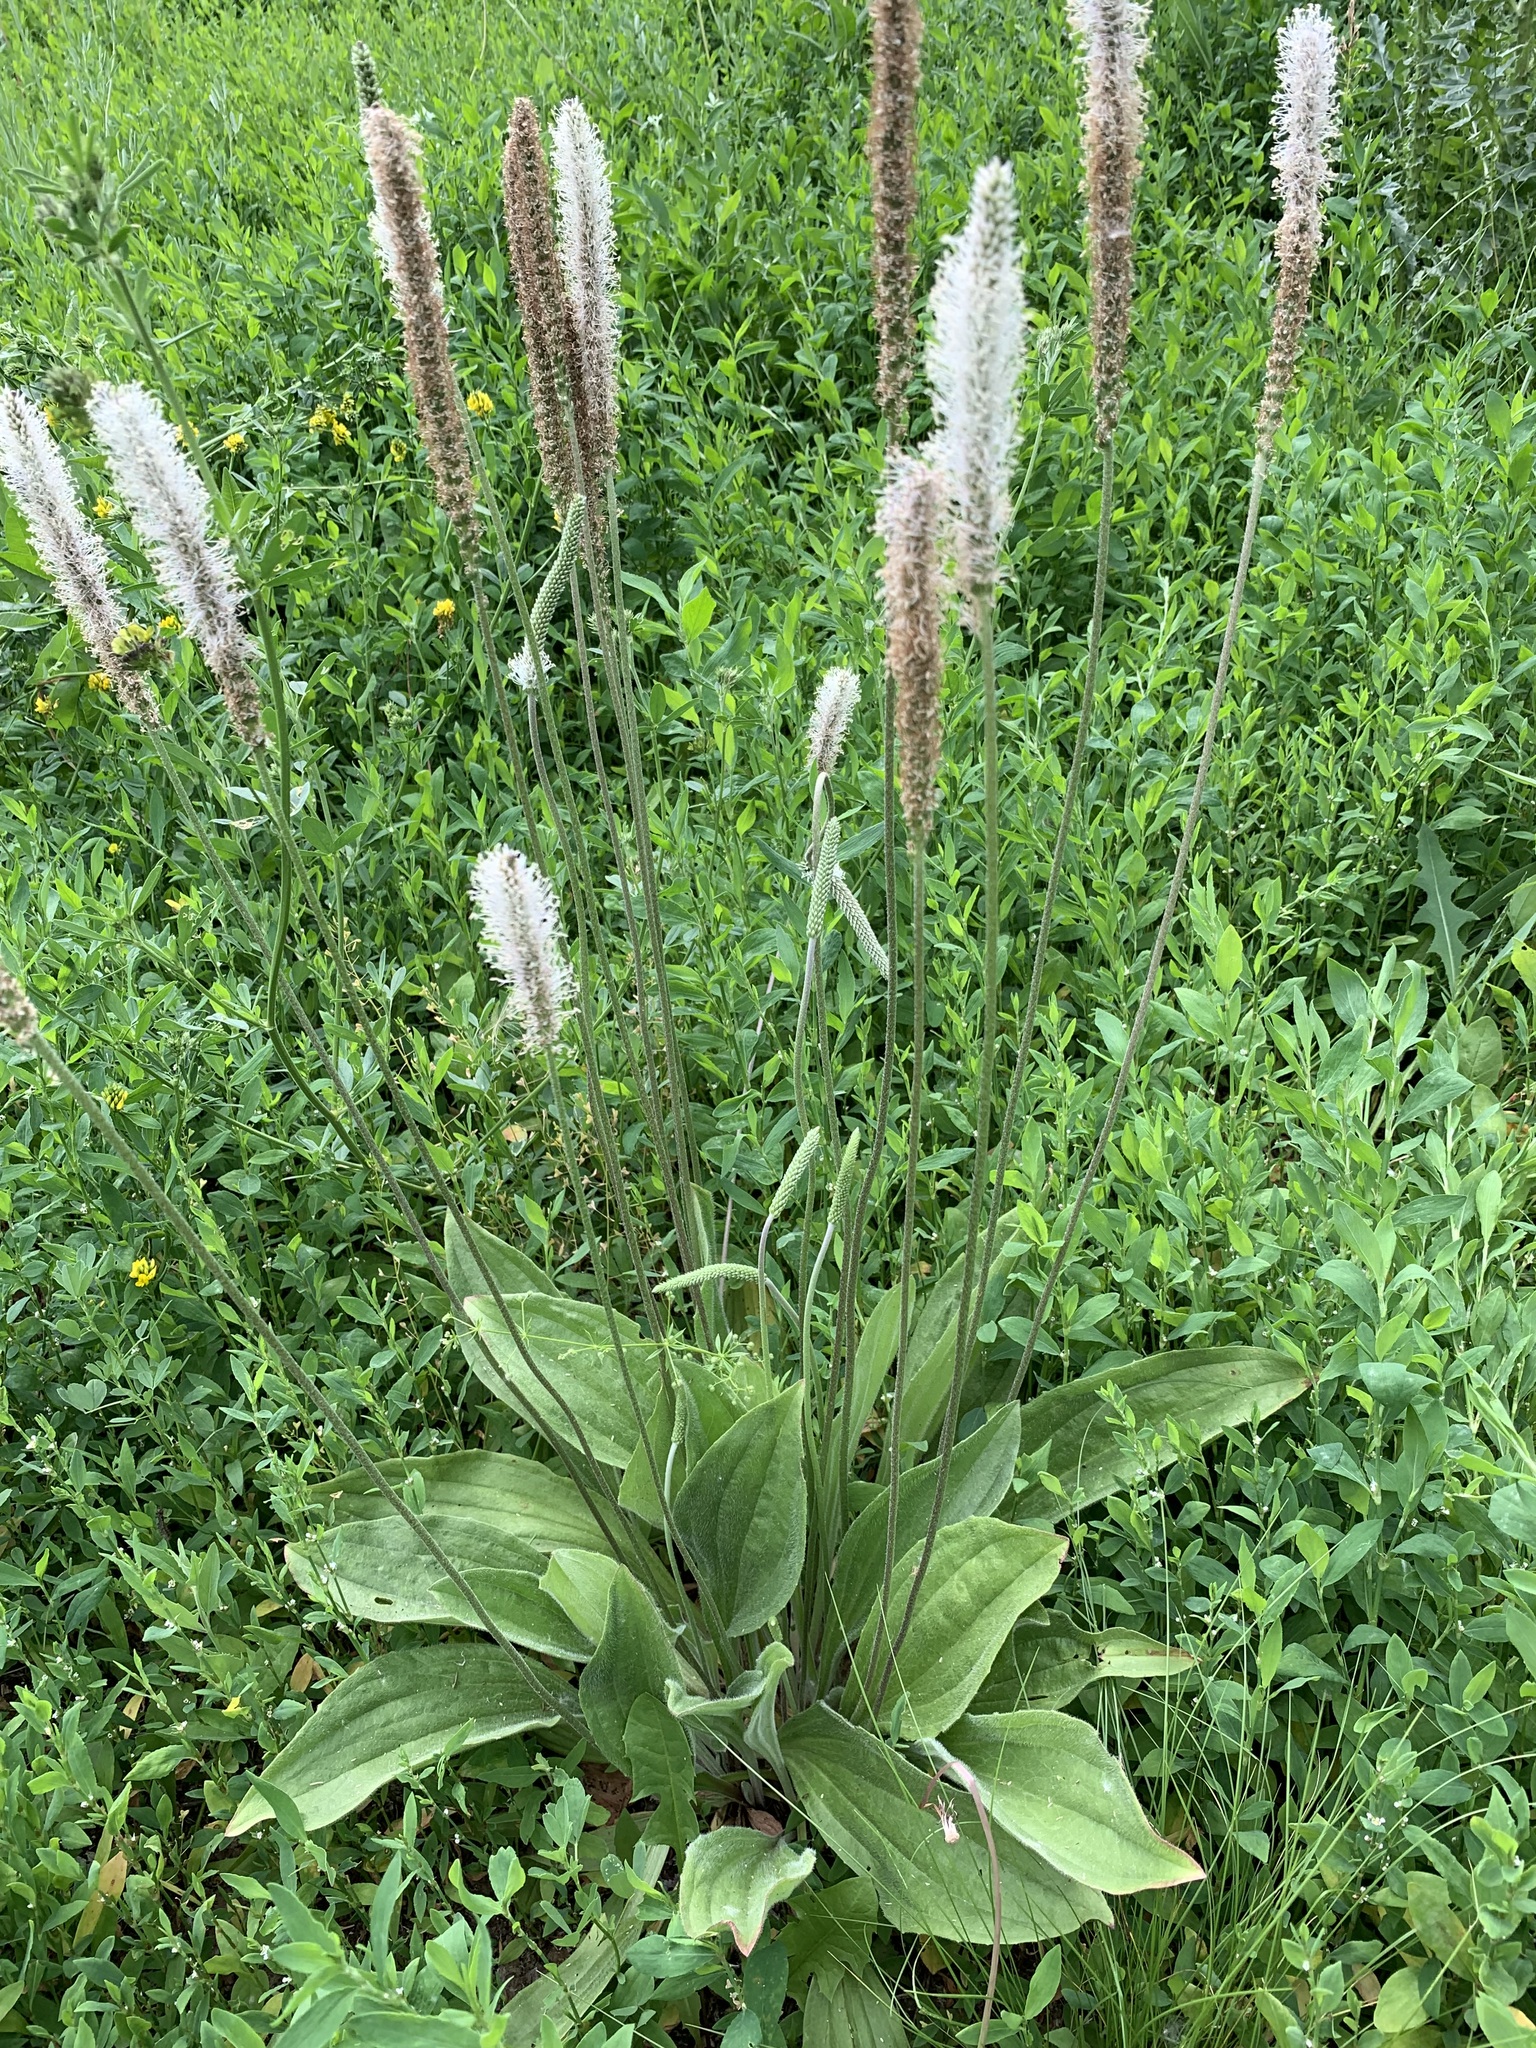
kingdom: Plantae
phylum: Tracheophyta
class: Magnoliopsida
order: Lamiales
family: Plantaginaceae
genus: Plantago
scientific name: Plantago urvillei
